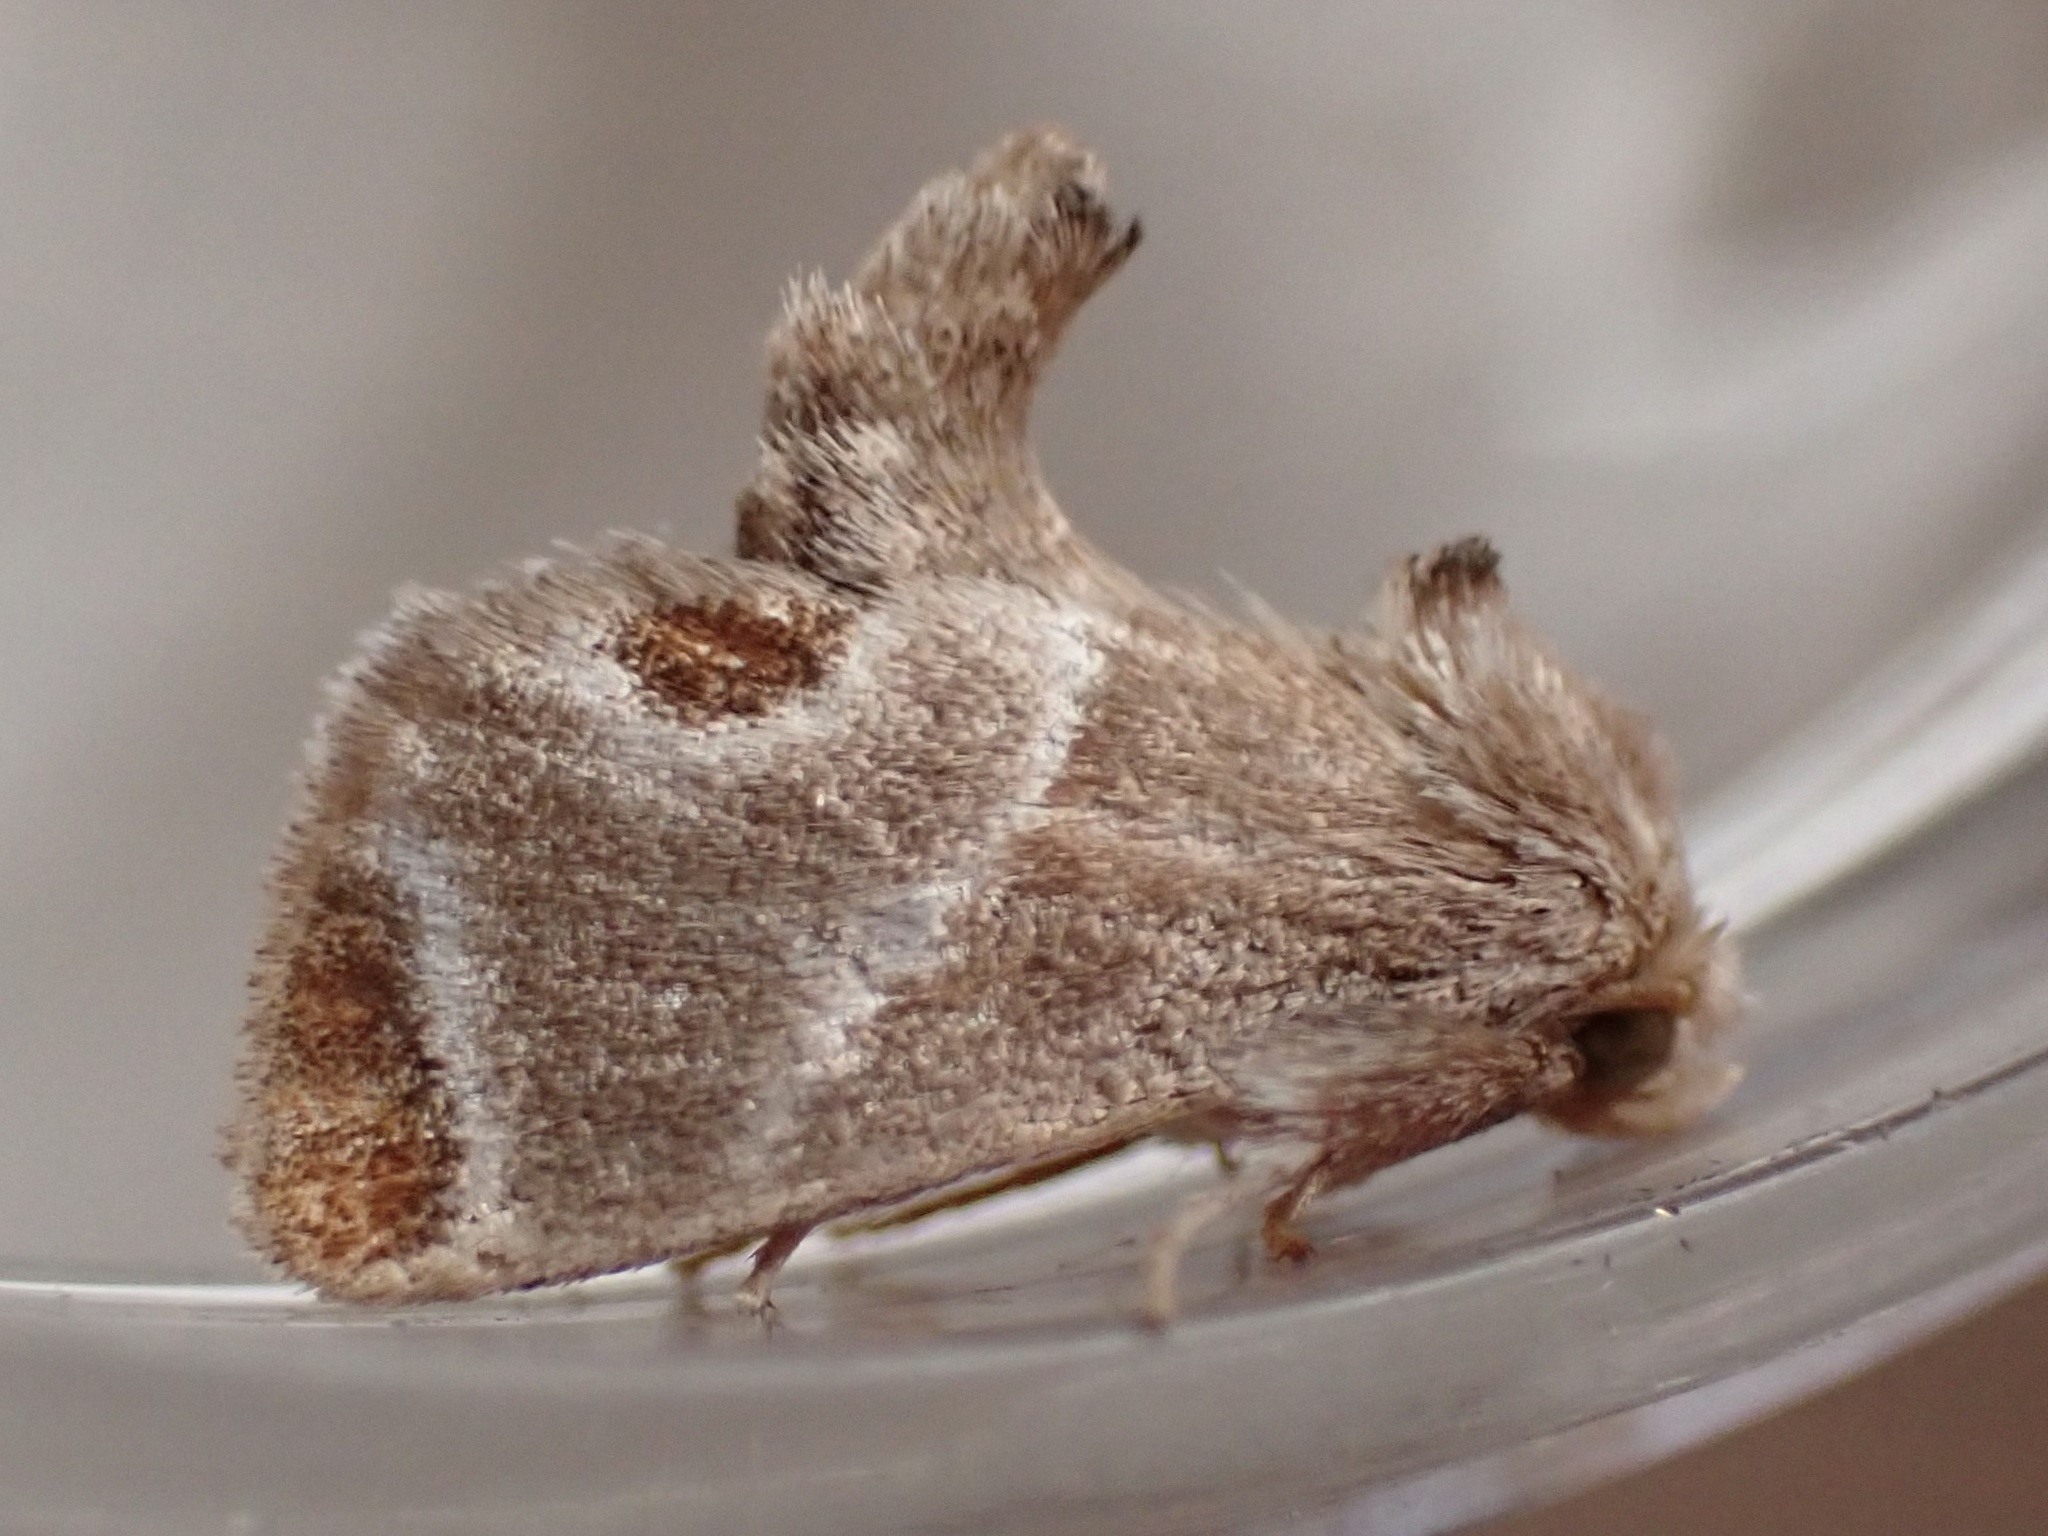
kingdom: Animalia
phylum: Arthropoda
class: Insecta
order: Lepidoptera
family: Limacodidae
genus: Apoda
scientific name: Apoda biguttata
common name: Shagreened slug moth
